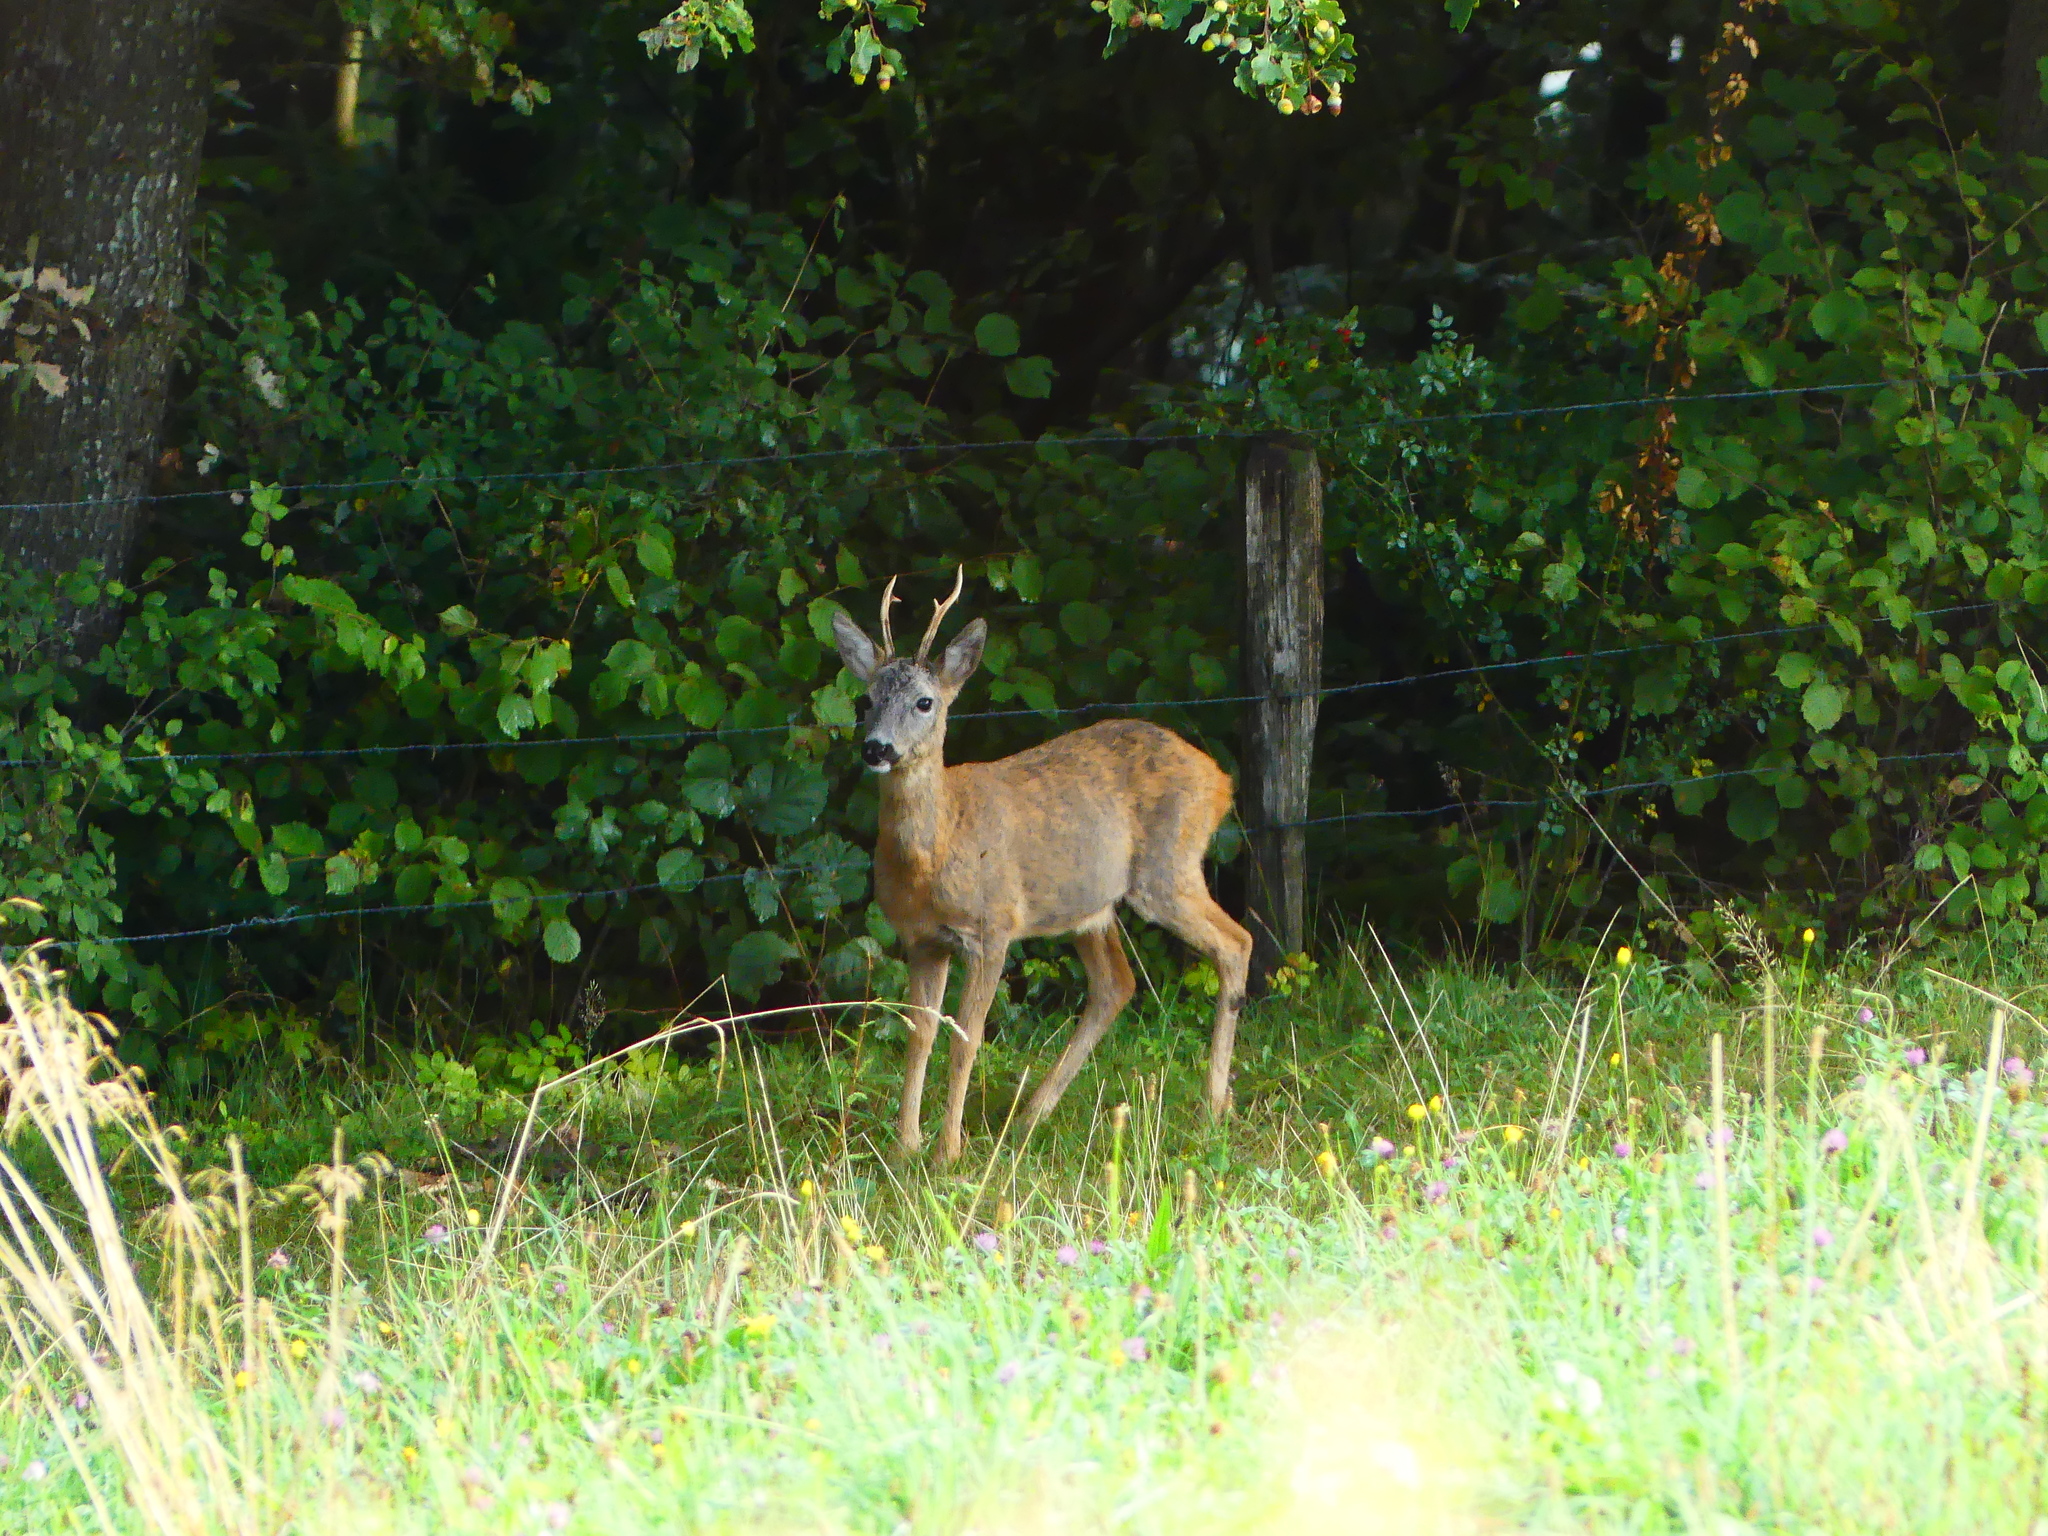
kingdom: Animalia
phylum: Chordata
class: Mammalia
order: Artiodactyla
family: Cervidae
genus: Capreolus
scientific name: Capreolus capreolus
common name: Western roe deer
